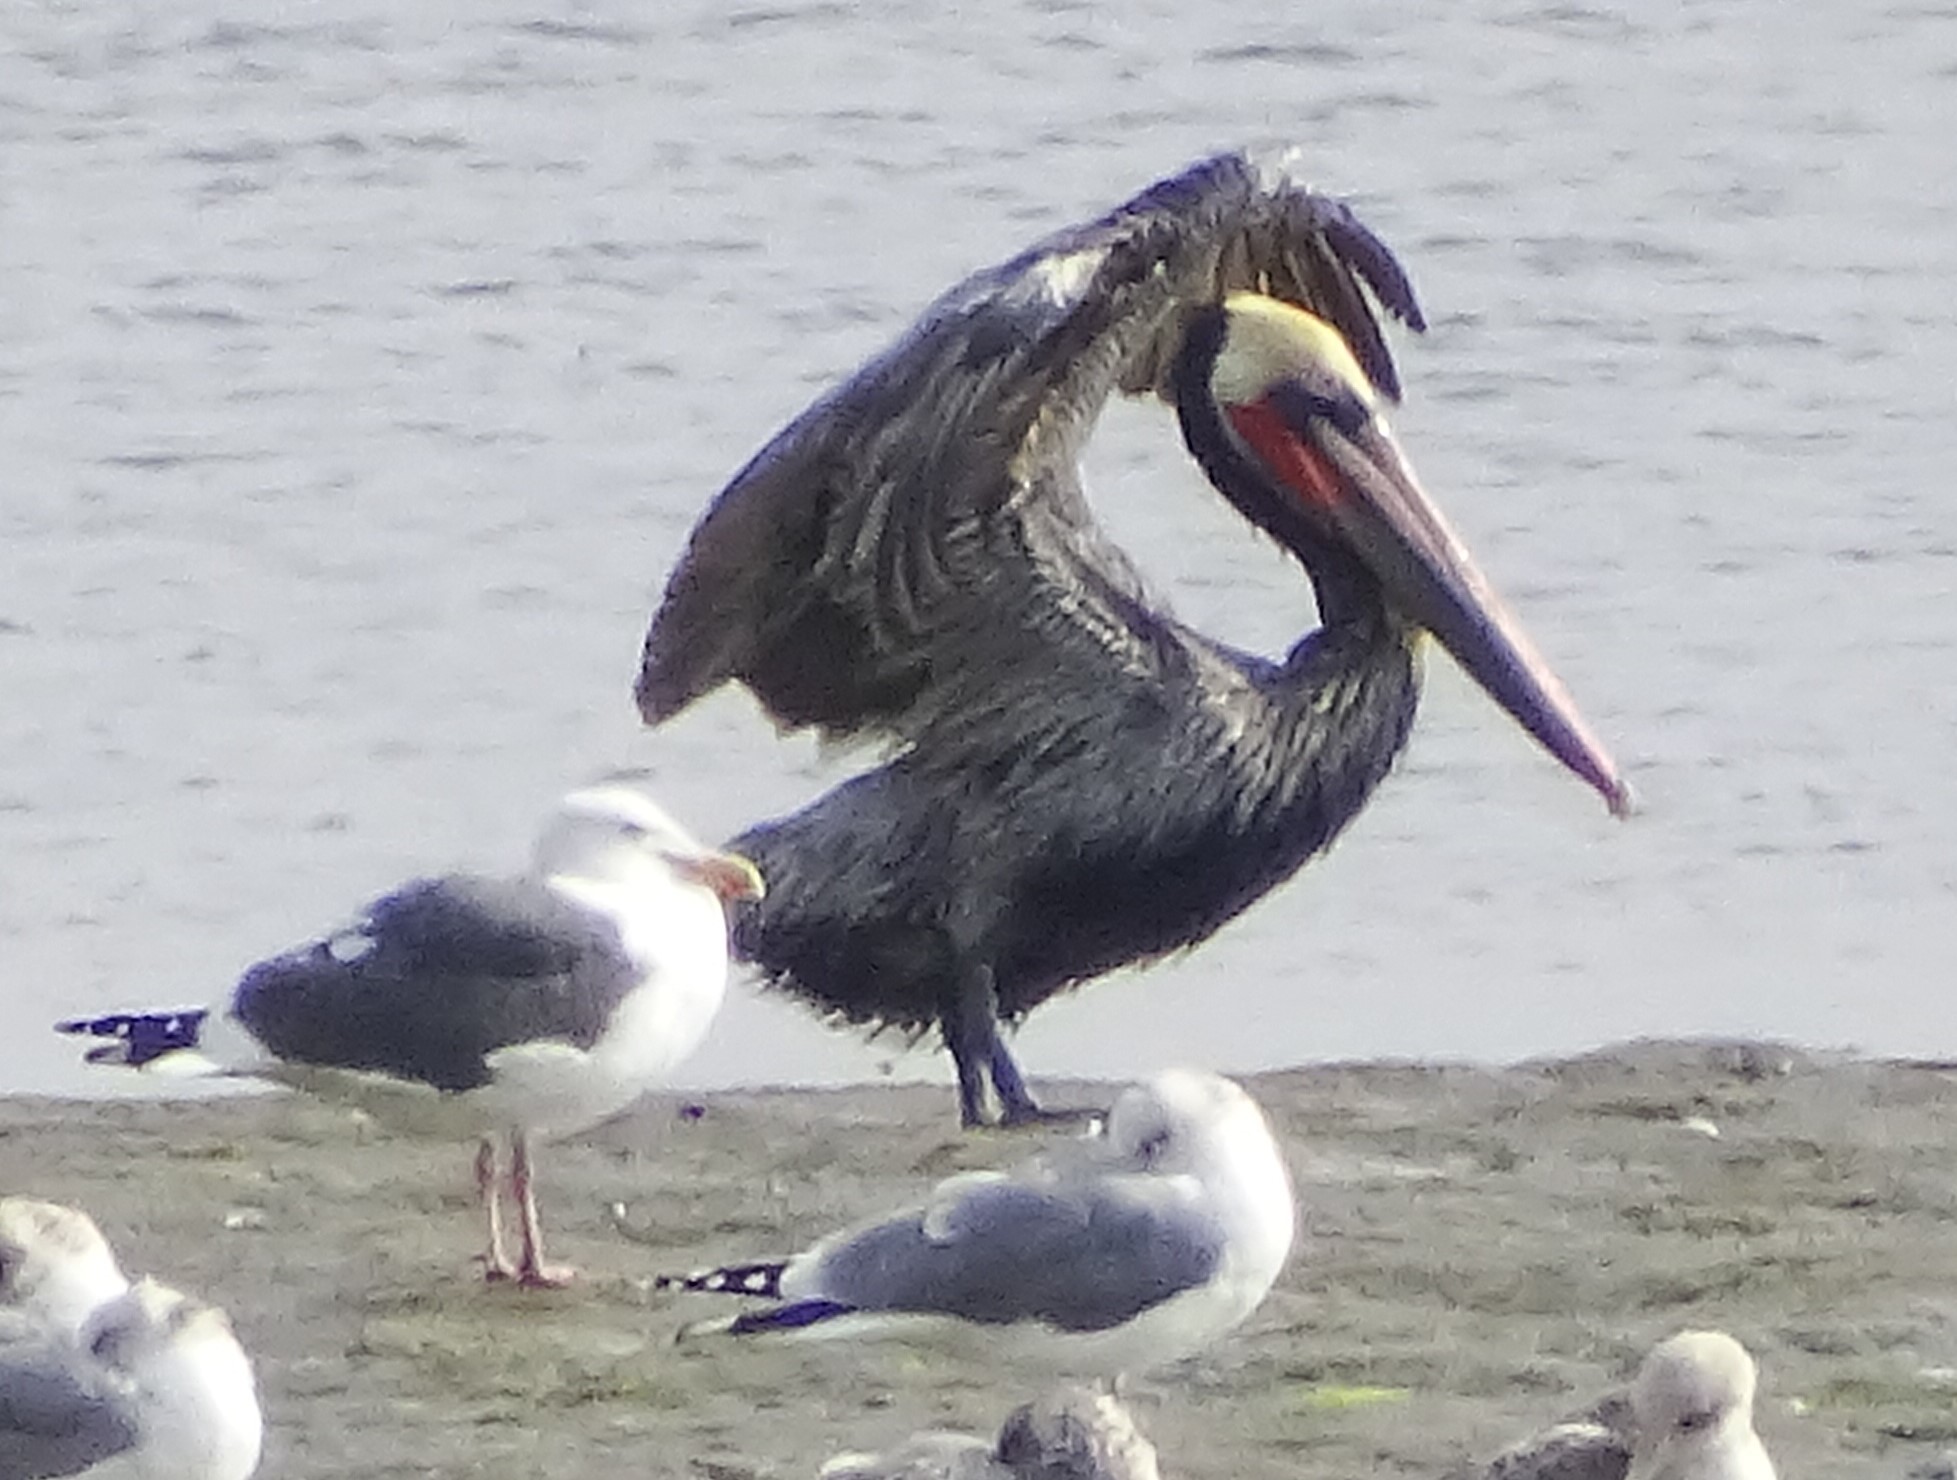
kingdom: Animalia
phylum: Chordata
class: Aves
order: Pelecaniformes
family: Pelecanidae
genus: Pelecanus
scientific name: Pelecanus occidentalis
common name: Brown pelican
